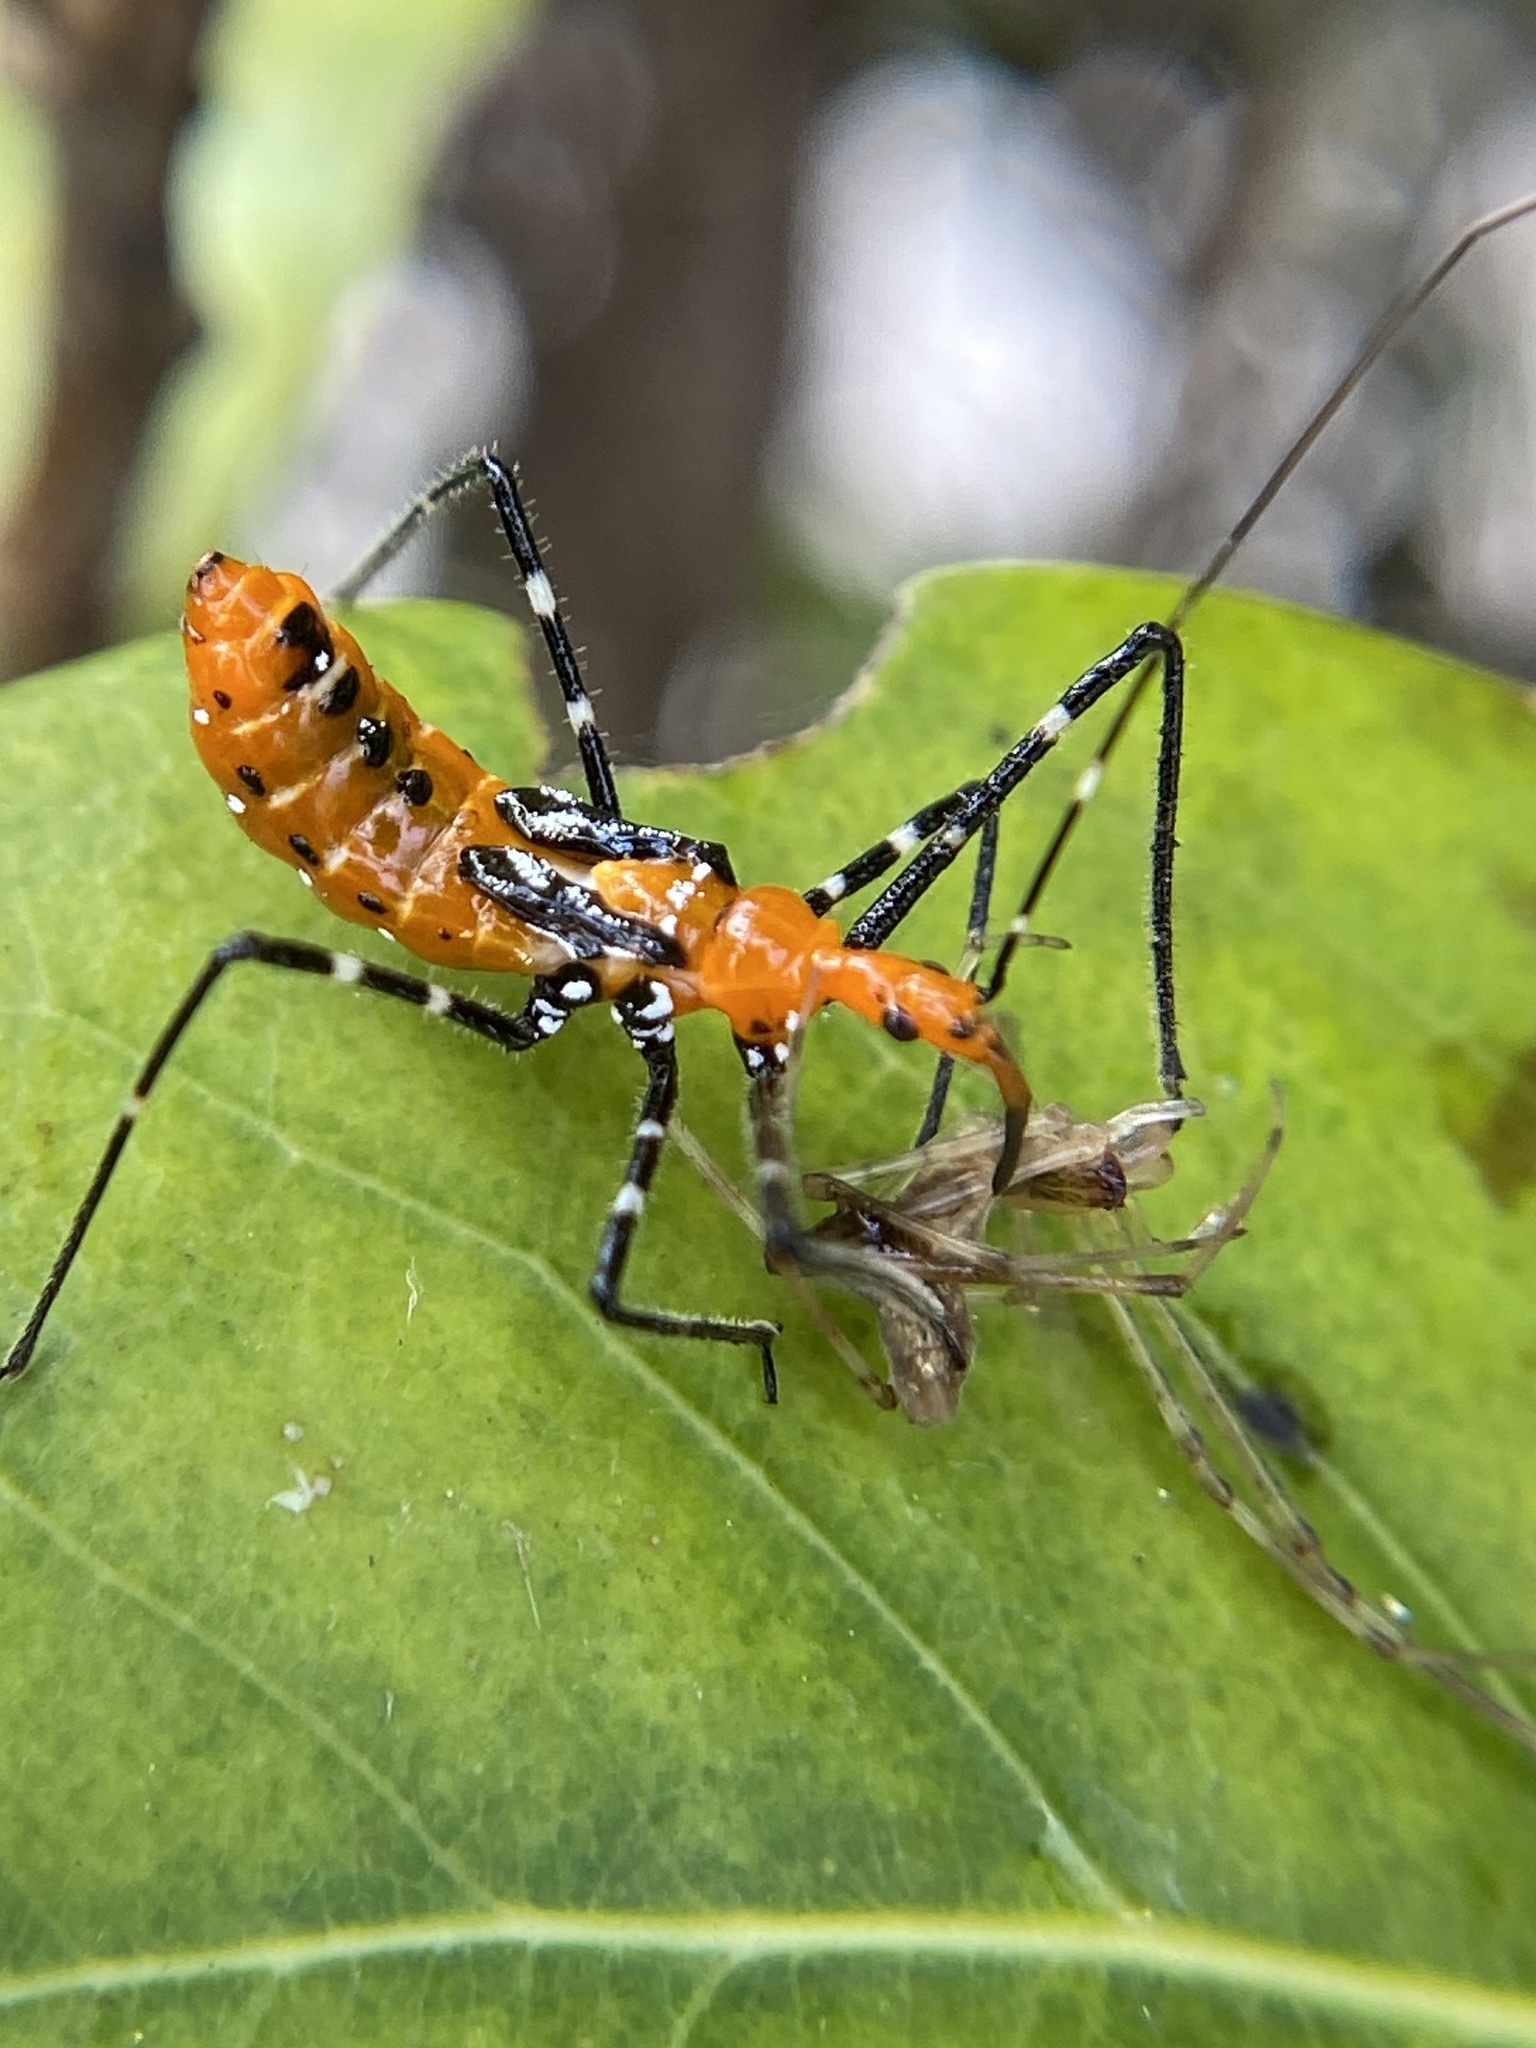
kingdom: Animalia
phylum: Arthropoda
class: Insecta
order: Hemiptera
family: Reduviidae
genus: Zelus
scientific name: Zelus longipes
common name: Milkweed assassin bug
